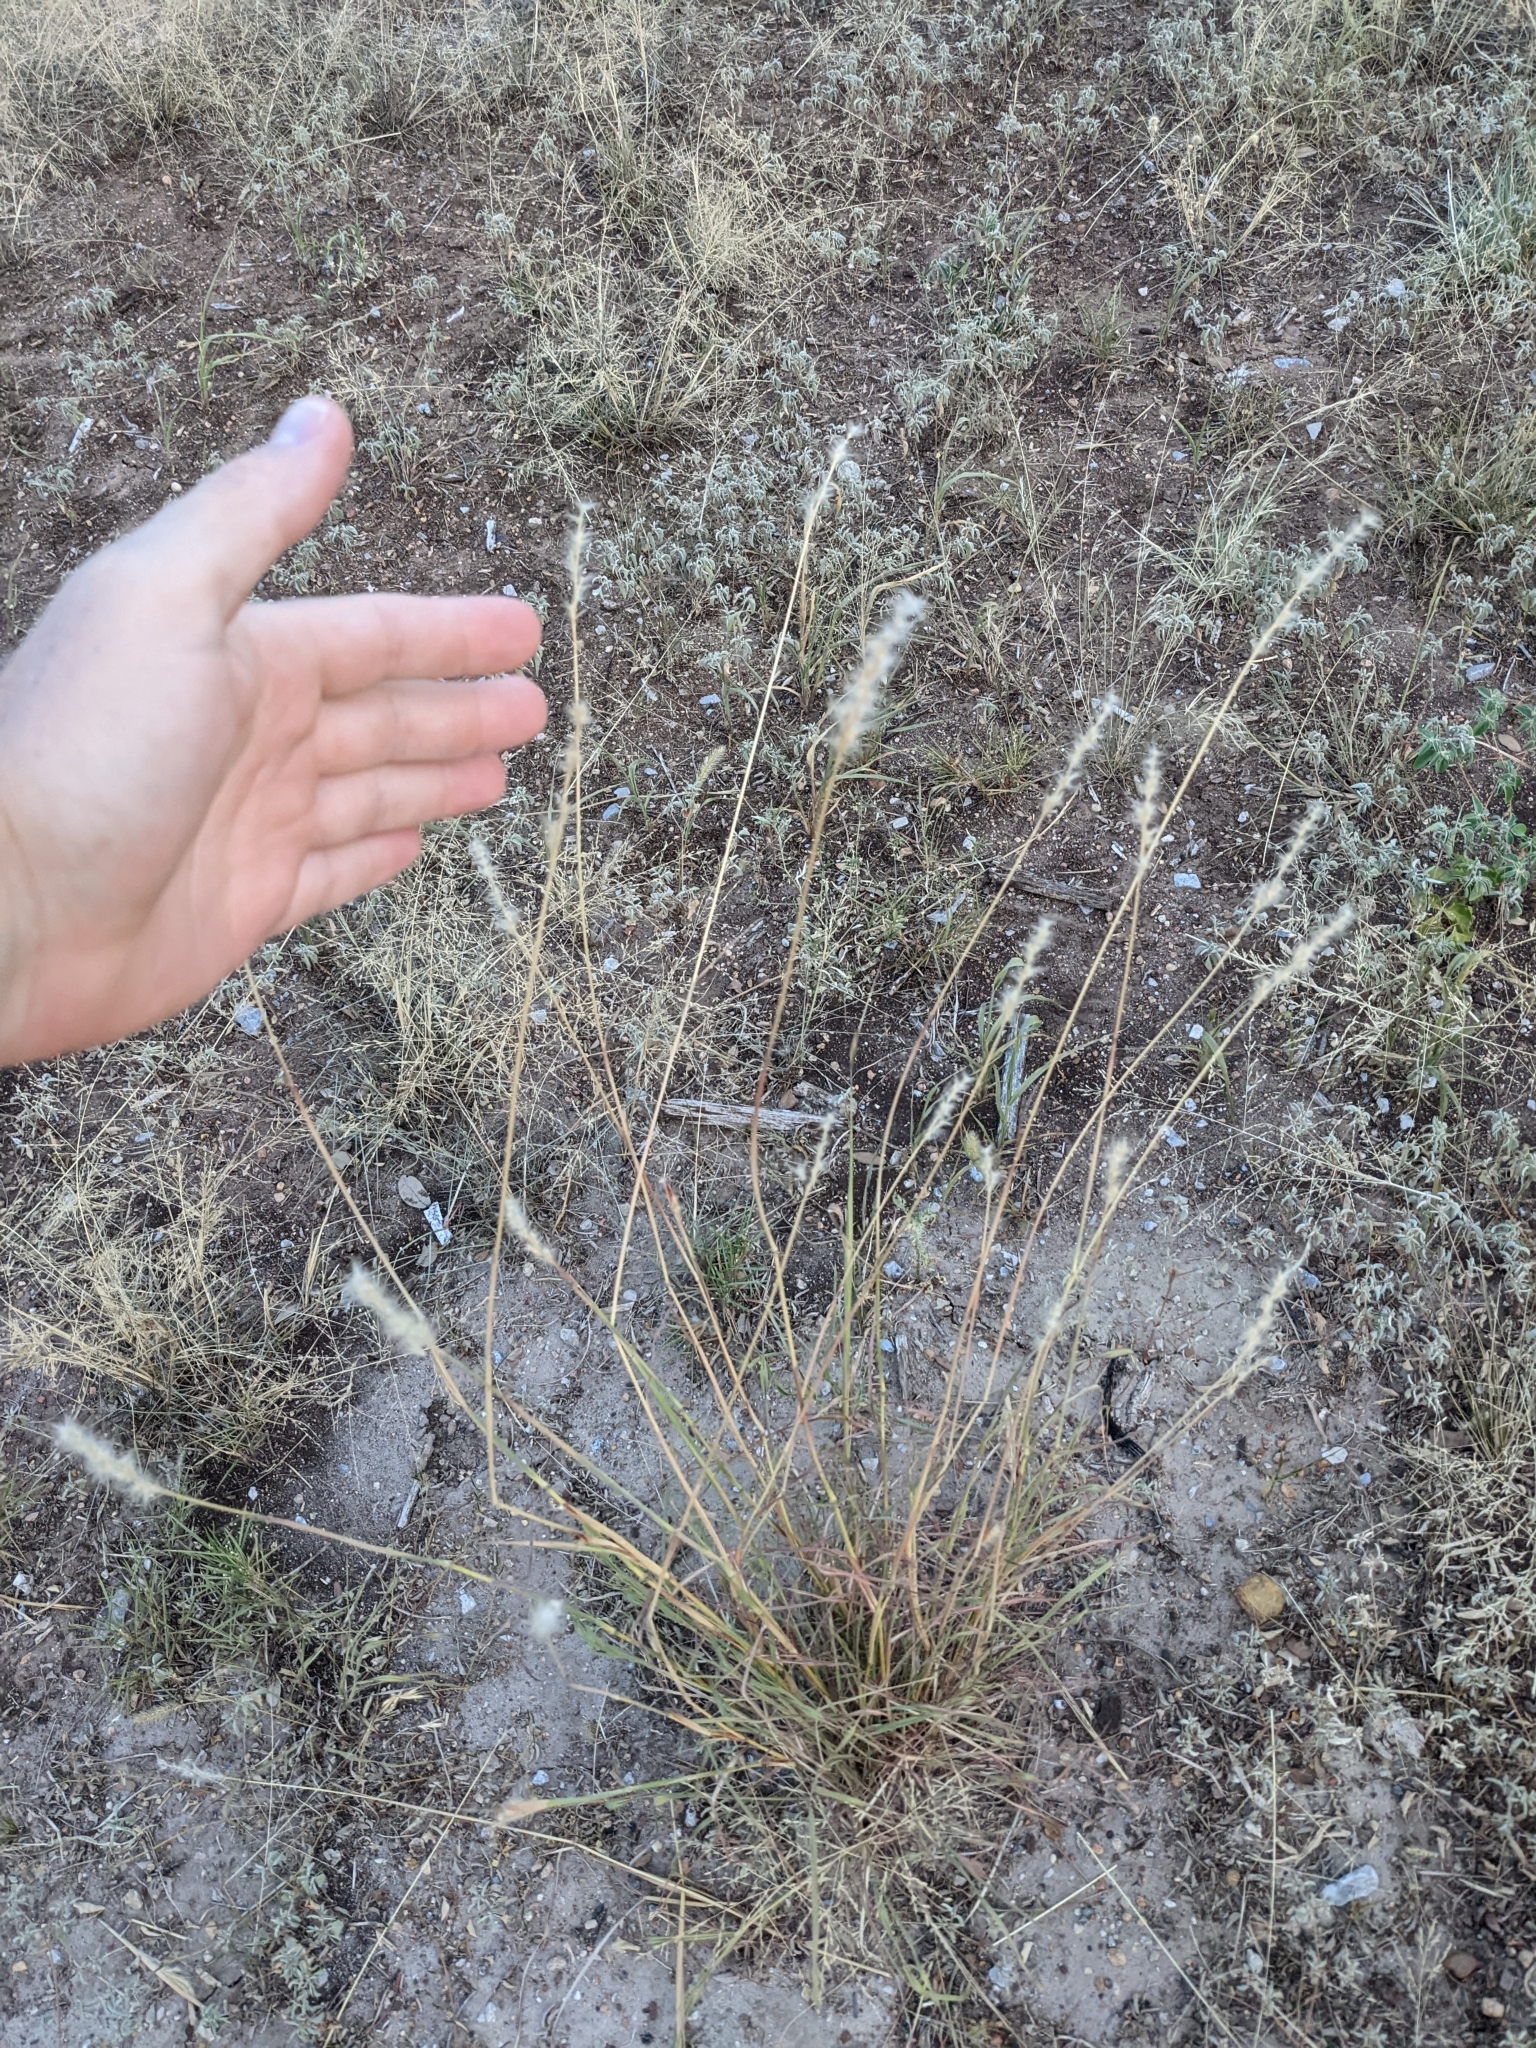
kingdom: Plantae
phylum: Tracheophyta
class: Liliopsida
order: Poales
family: Poaceae
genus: Bothriochloa
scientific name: Bothriochloa barbinodis
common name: Cane bluestem
